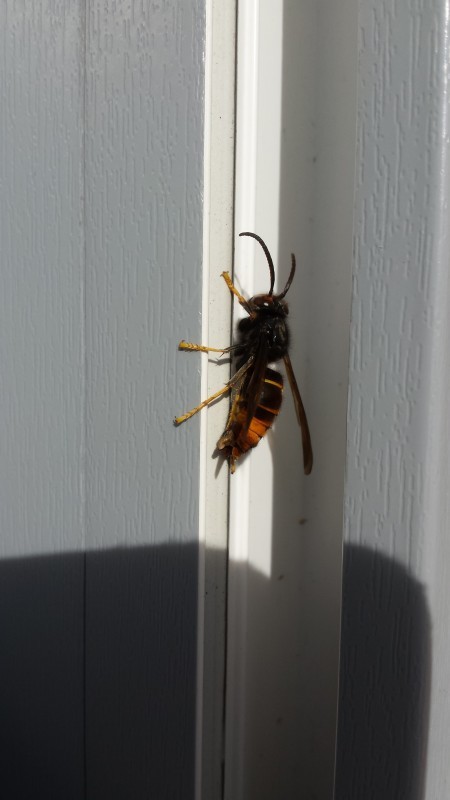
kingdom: Animalia
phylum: Arthropoda
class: Insecta
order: Hymenoptera
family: Vespidae
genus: Vespa
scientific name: Vespa velutina
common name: Asian hornet
